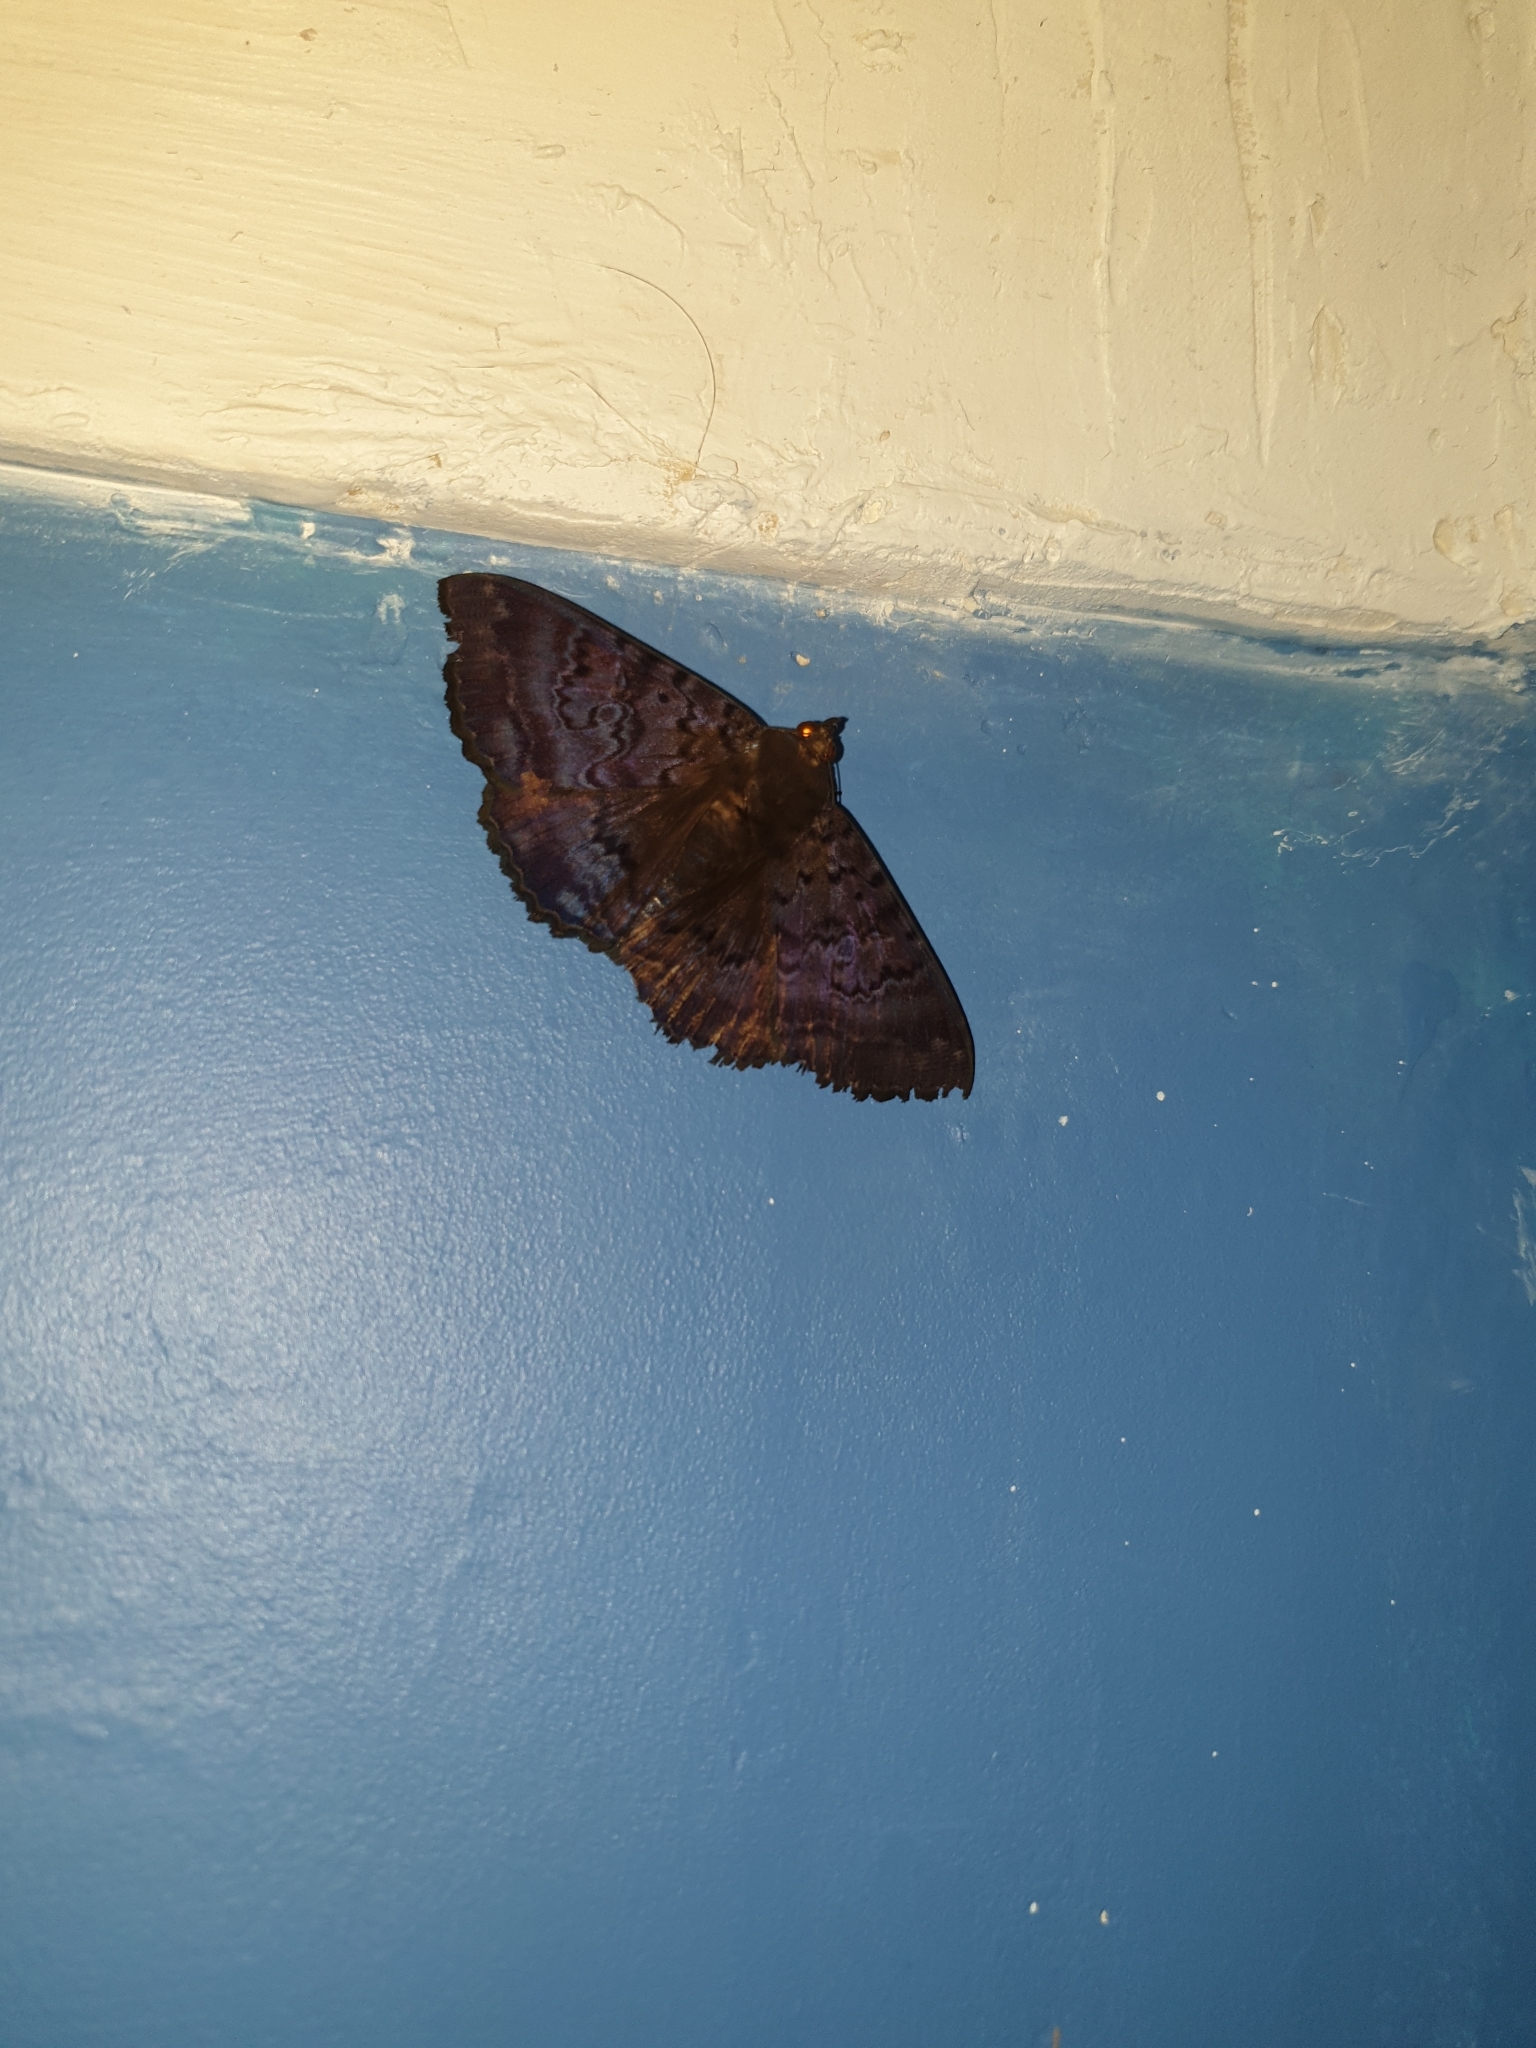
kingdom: Animalia
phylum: Arthropoda
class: Insecta
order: Lepidoptera
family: Erebidae
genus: Speiredonia
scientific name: Speiredonia spectans
